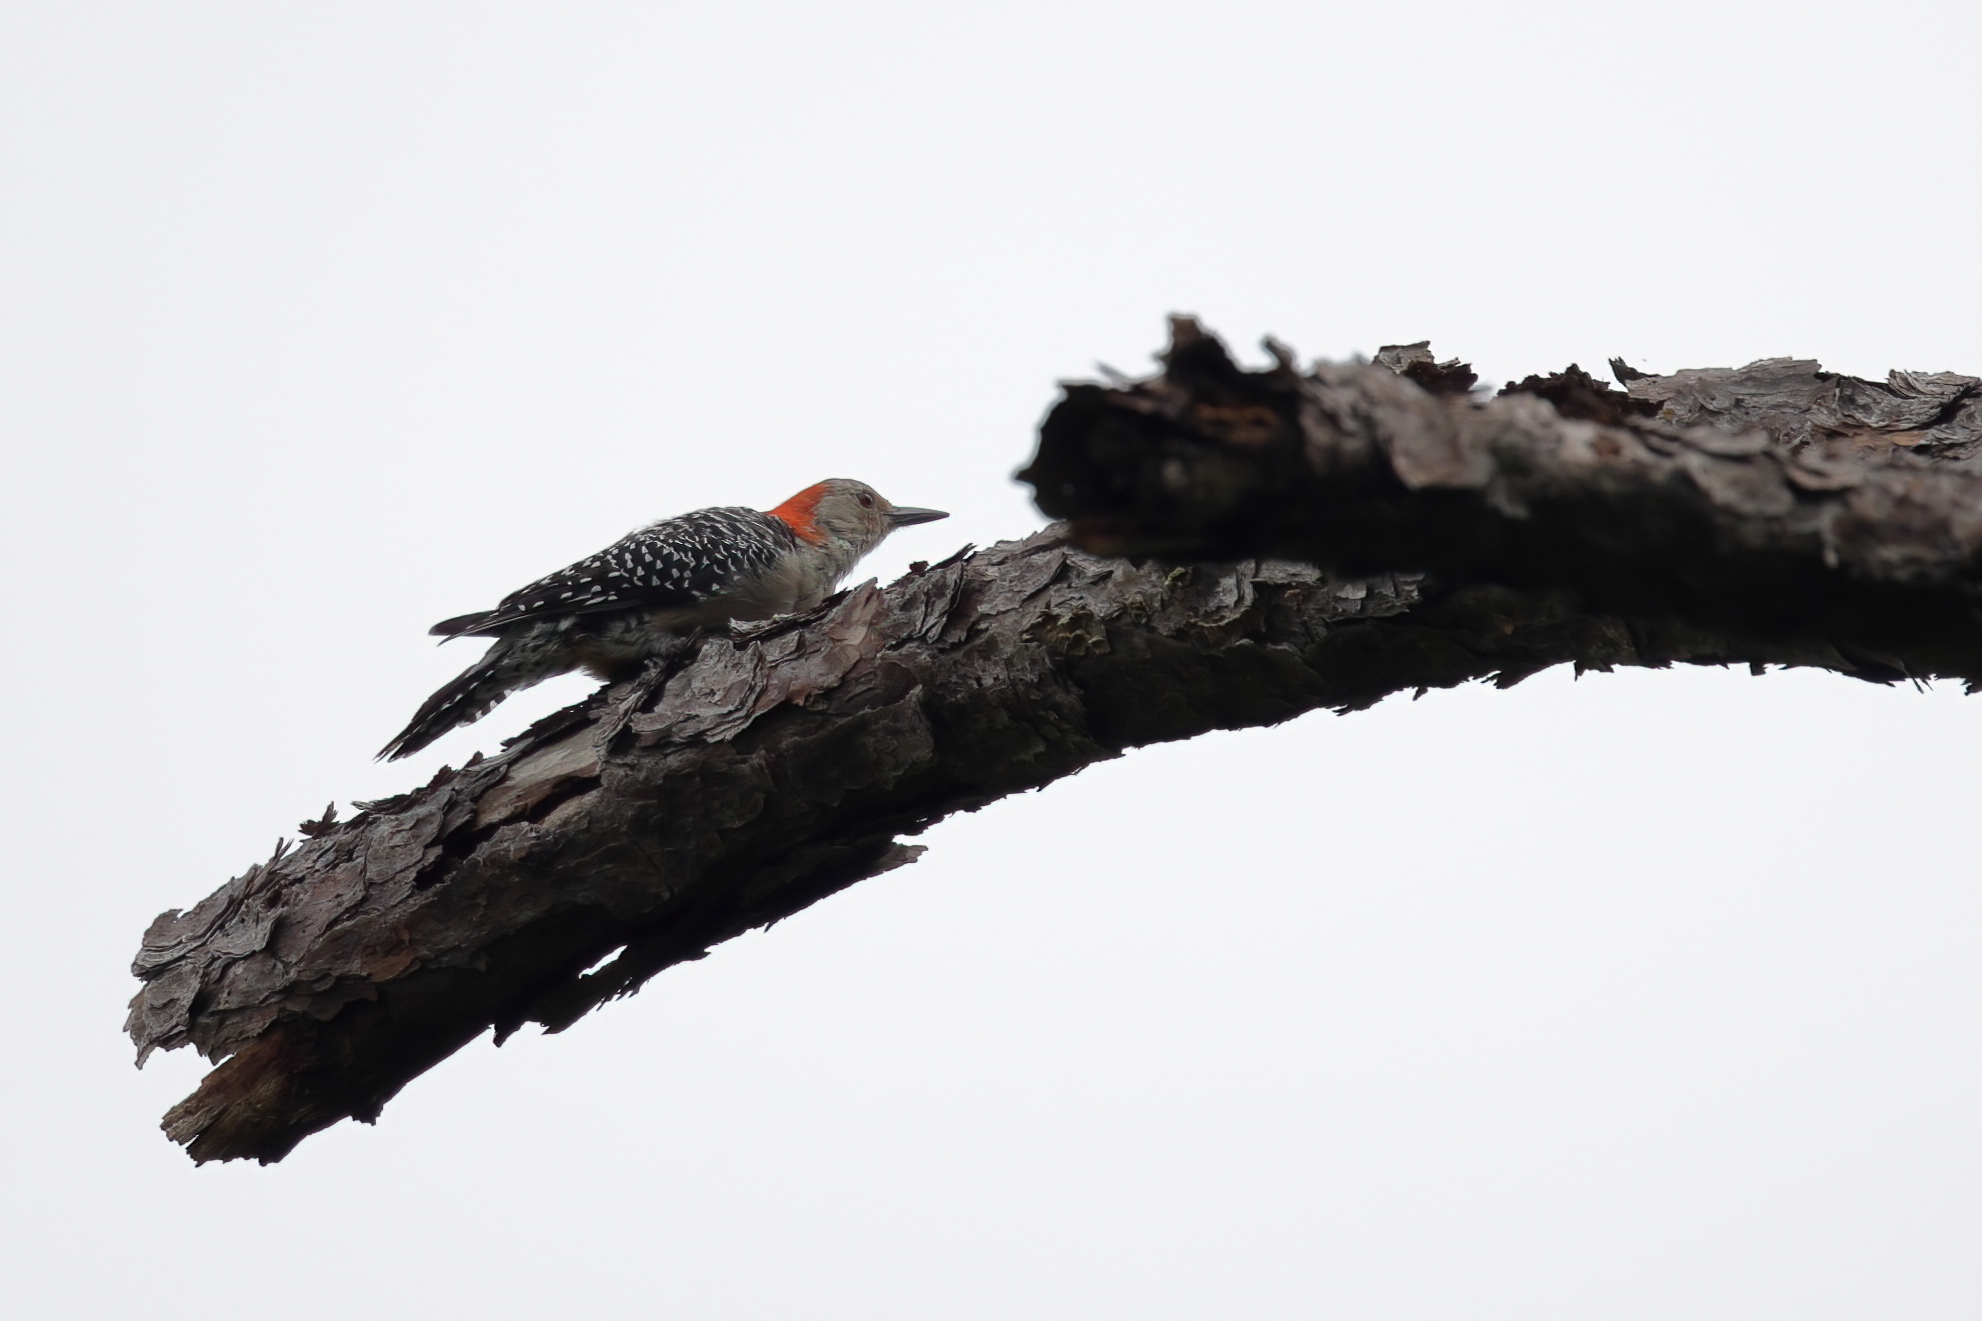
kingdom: Animalia
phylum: Chordata
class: Aves
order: Piciformes
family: Picidae
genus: Melanerpes
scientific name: Melanerpes carolinus
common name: Red-bellied woodpecker
